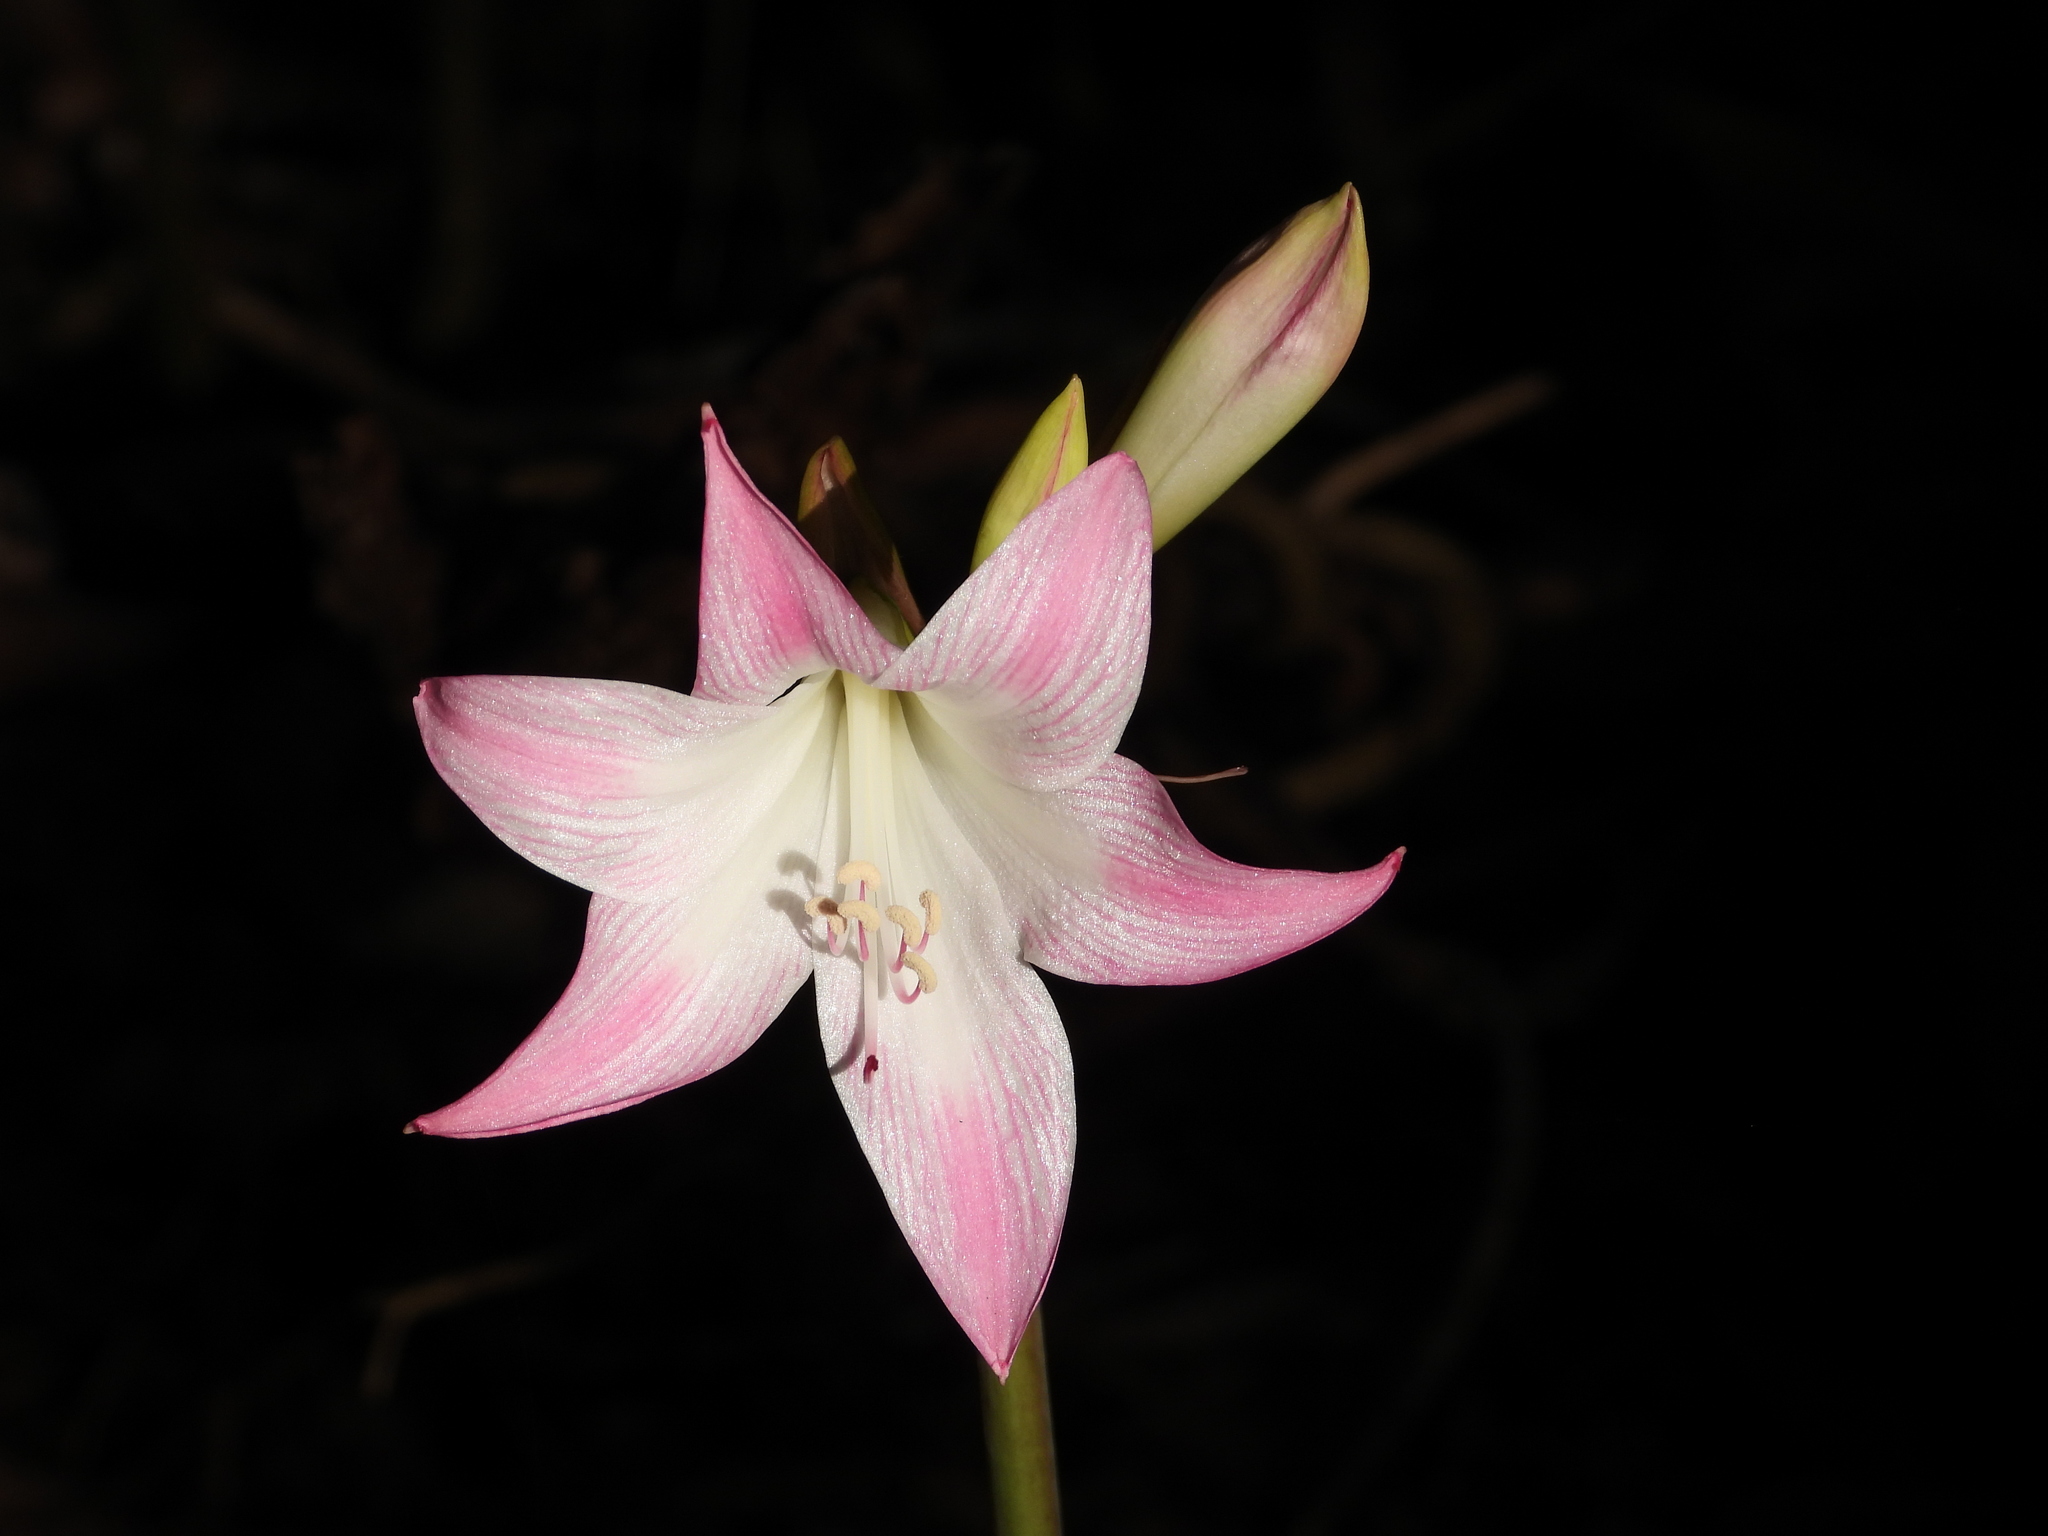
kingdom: Plantae
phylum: Tracheophyta
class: Liliopsida
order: Asparagales
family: Amaryllidaceae
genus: Amaryllis
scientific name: Amaryllis belladonna
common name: Jersey lily
